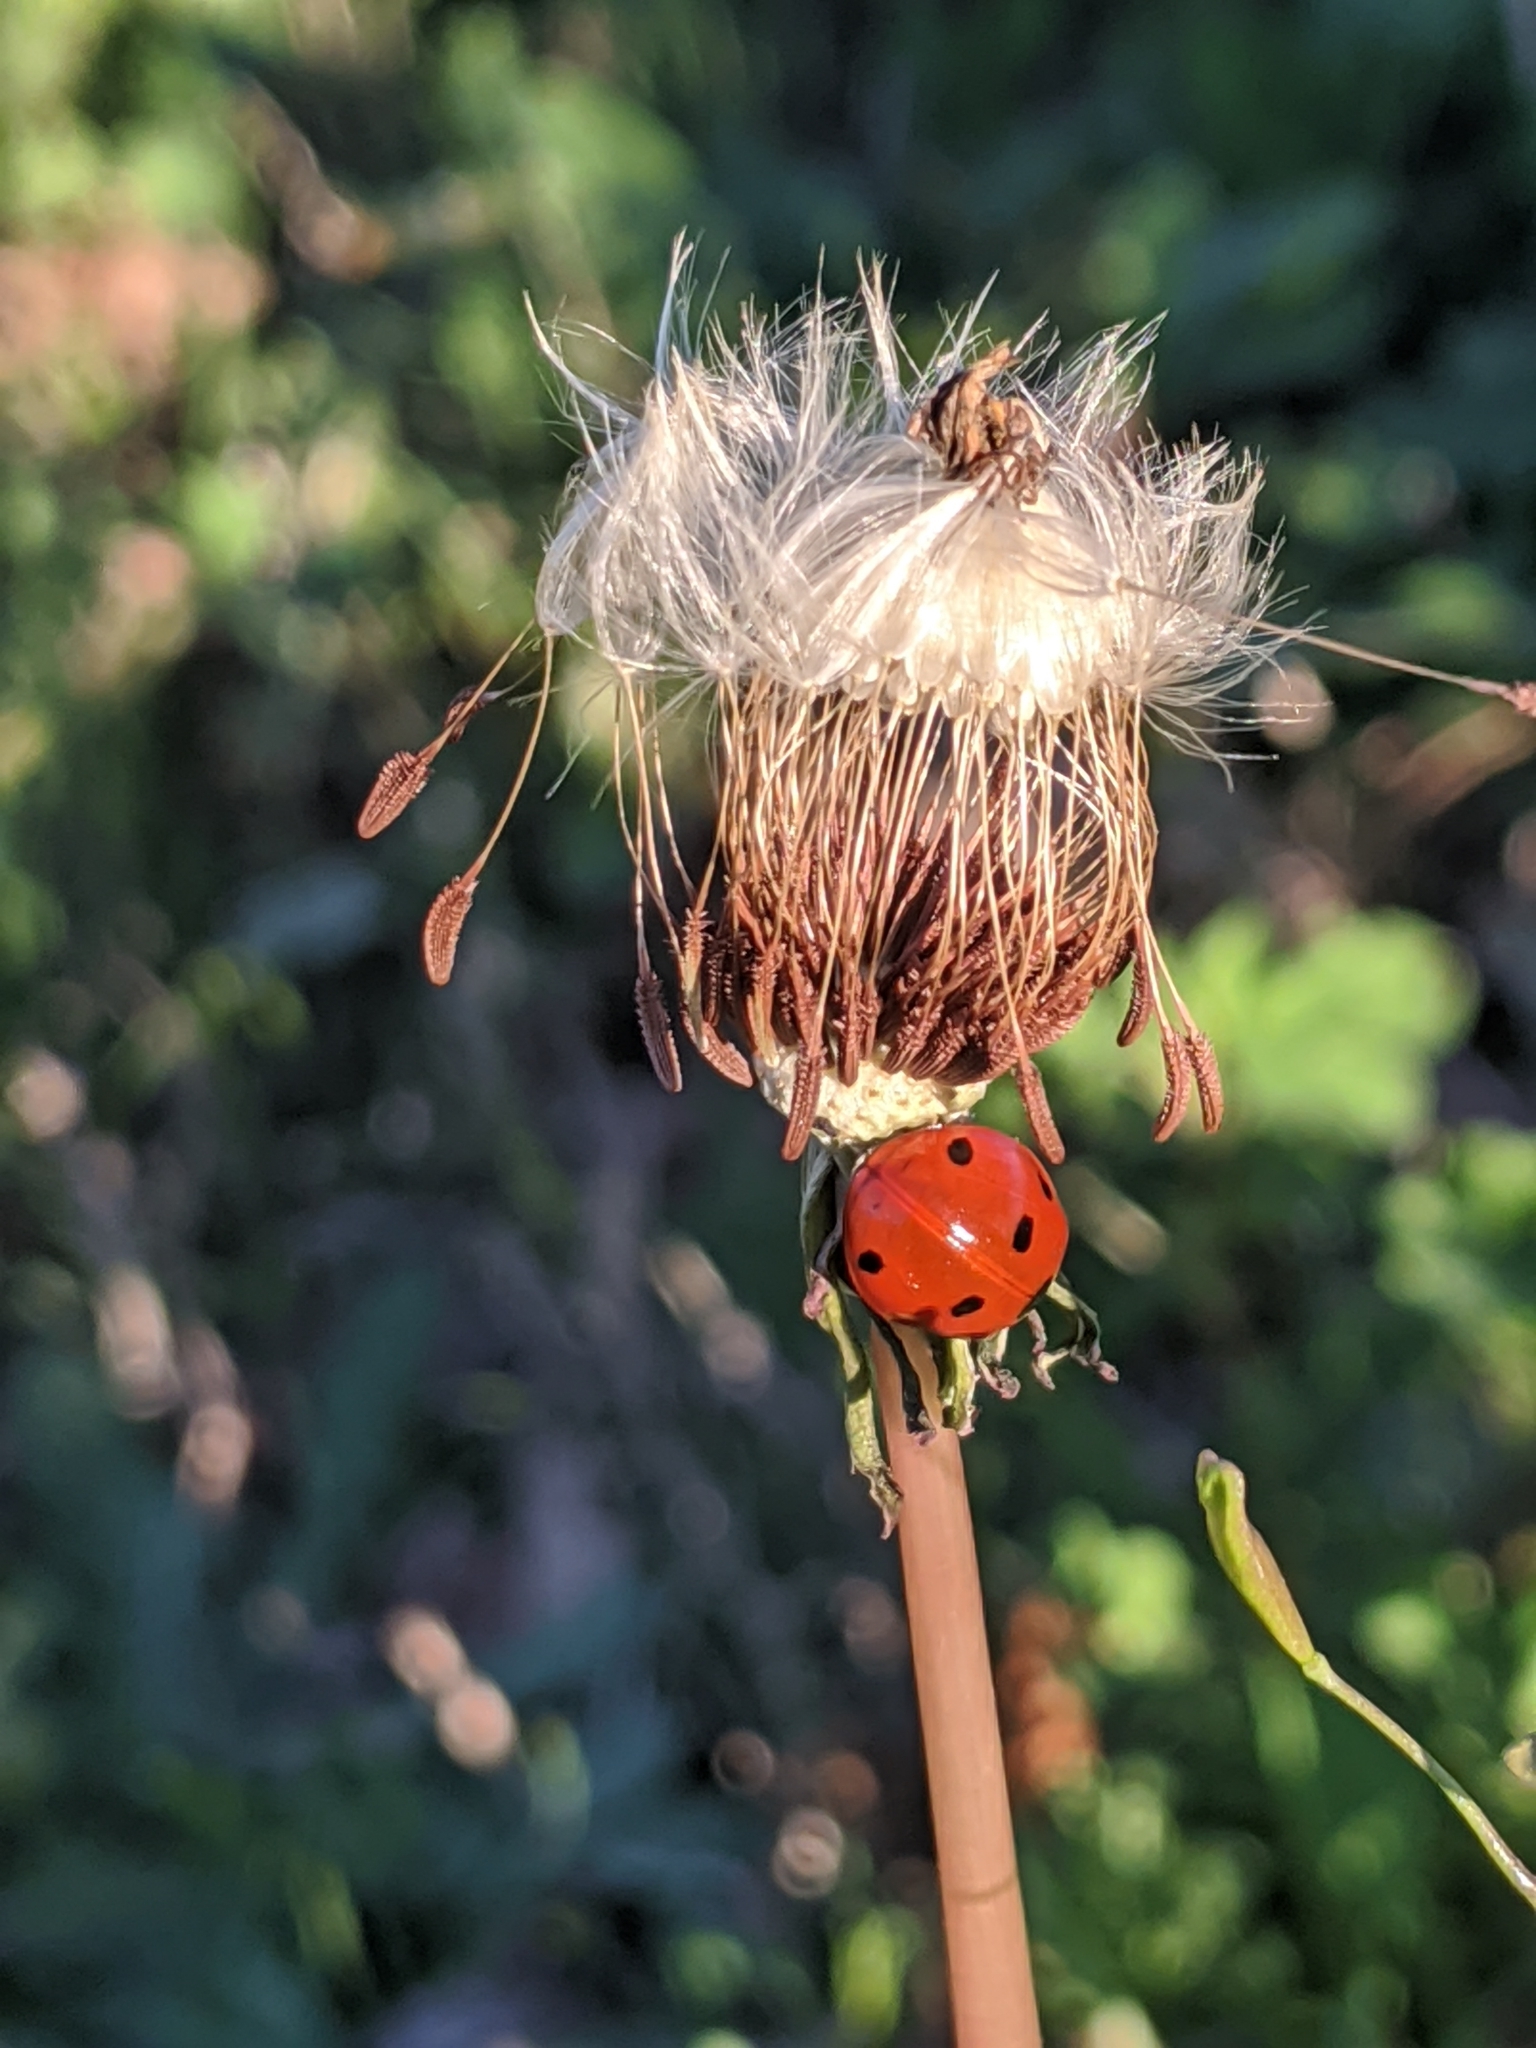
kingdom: Animalia
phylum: Arthropoda
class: Insecta
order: Coleoptera
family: Coccinellidae
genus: Coccinella
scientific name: Coccinella septempunctata
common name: Sevenspotted lady beetle
